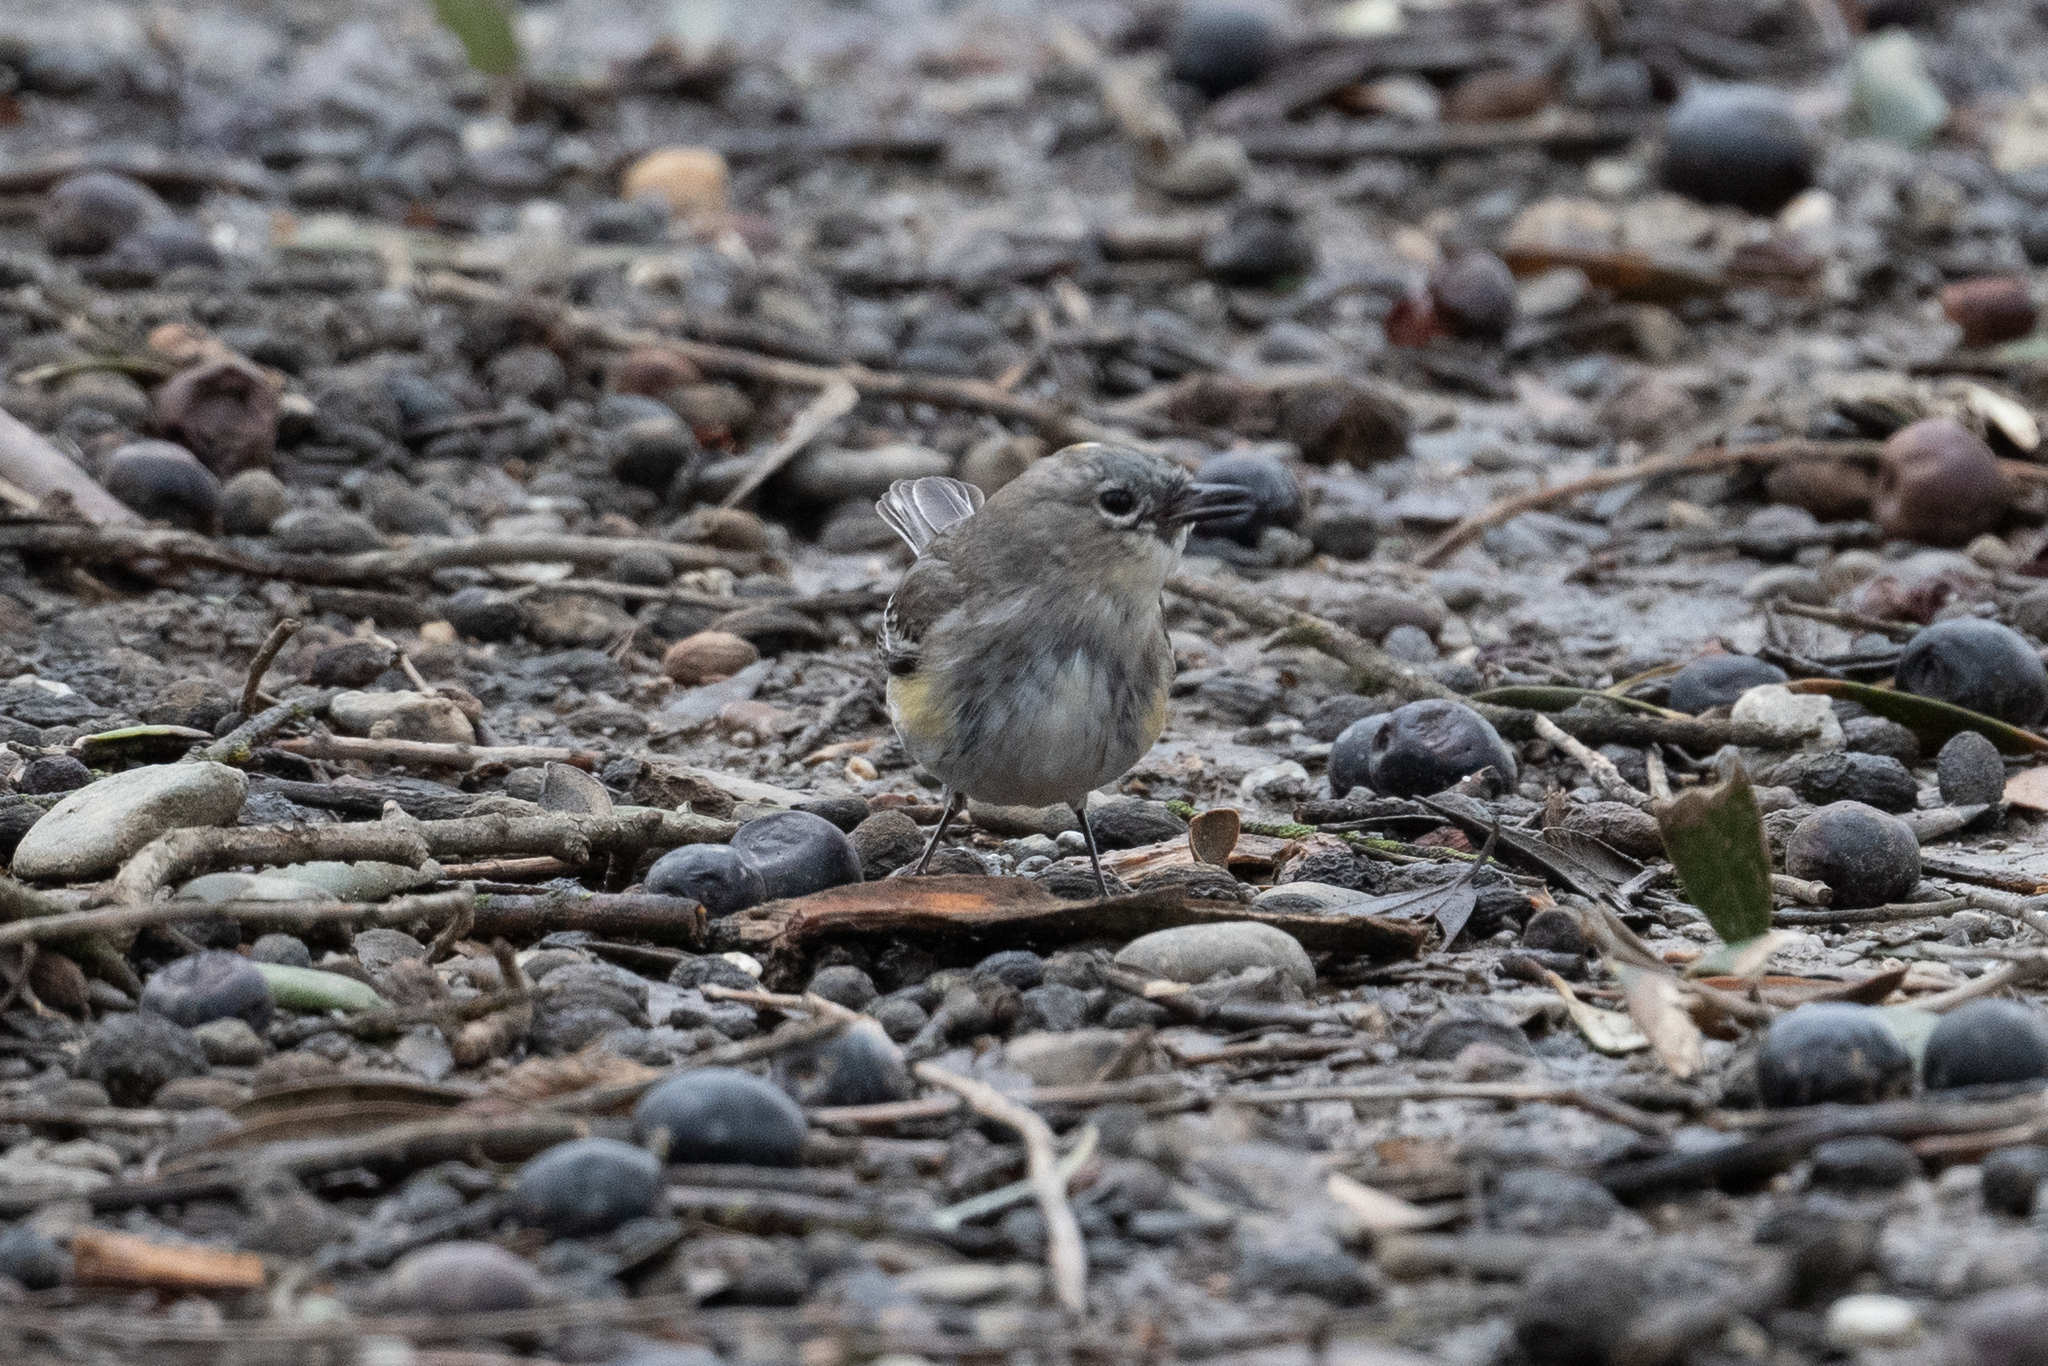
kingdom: Animalia
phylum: Chordata
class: Aves
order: Passeriformes
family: Parulidae
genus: Setophaga
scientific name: Setophaga coronata
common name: Myrtle warbler
